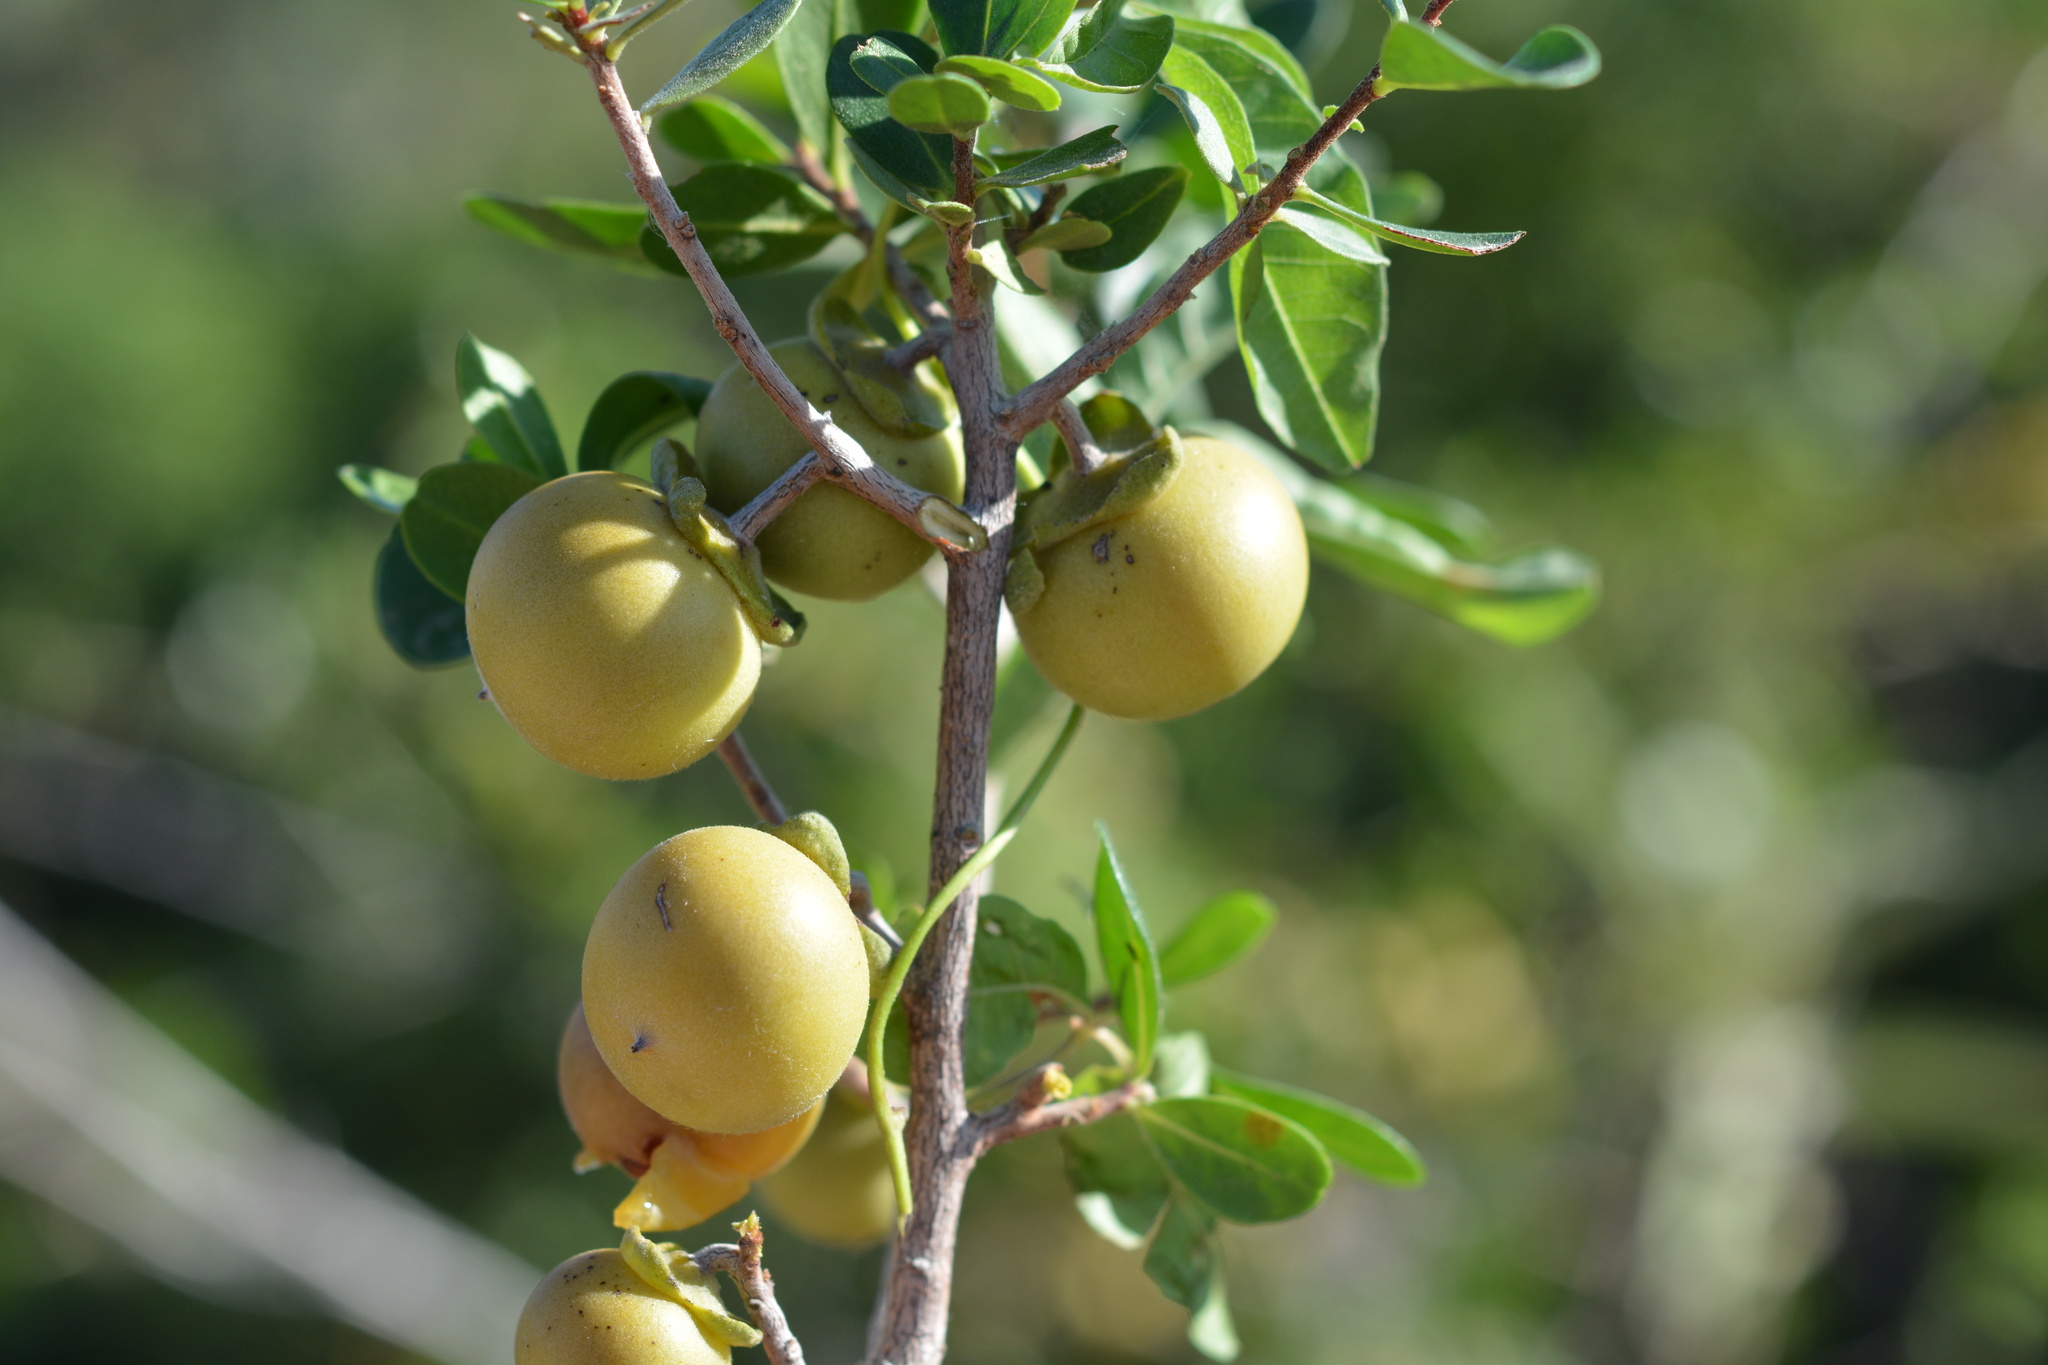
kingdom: Plantae
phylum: Tracheophyta
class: Magnoliopsida
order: Ericales
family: Ebenaceae
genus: Diospyros
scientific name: Diospyros intricata
